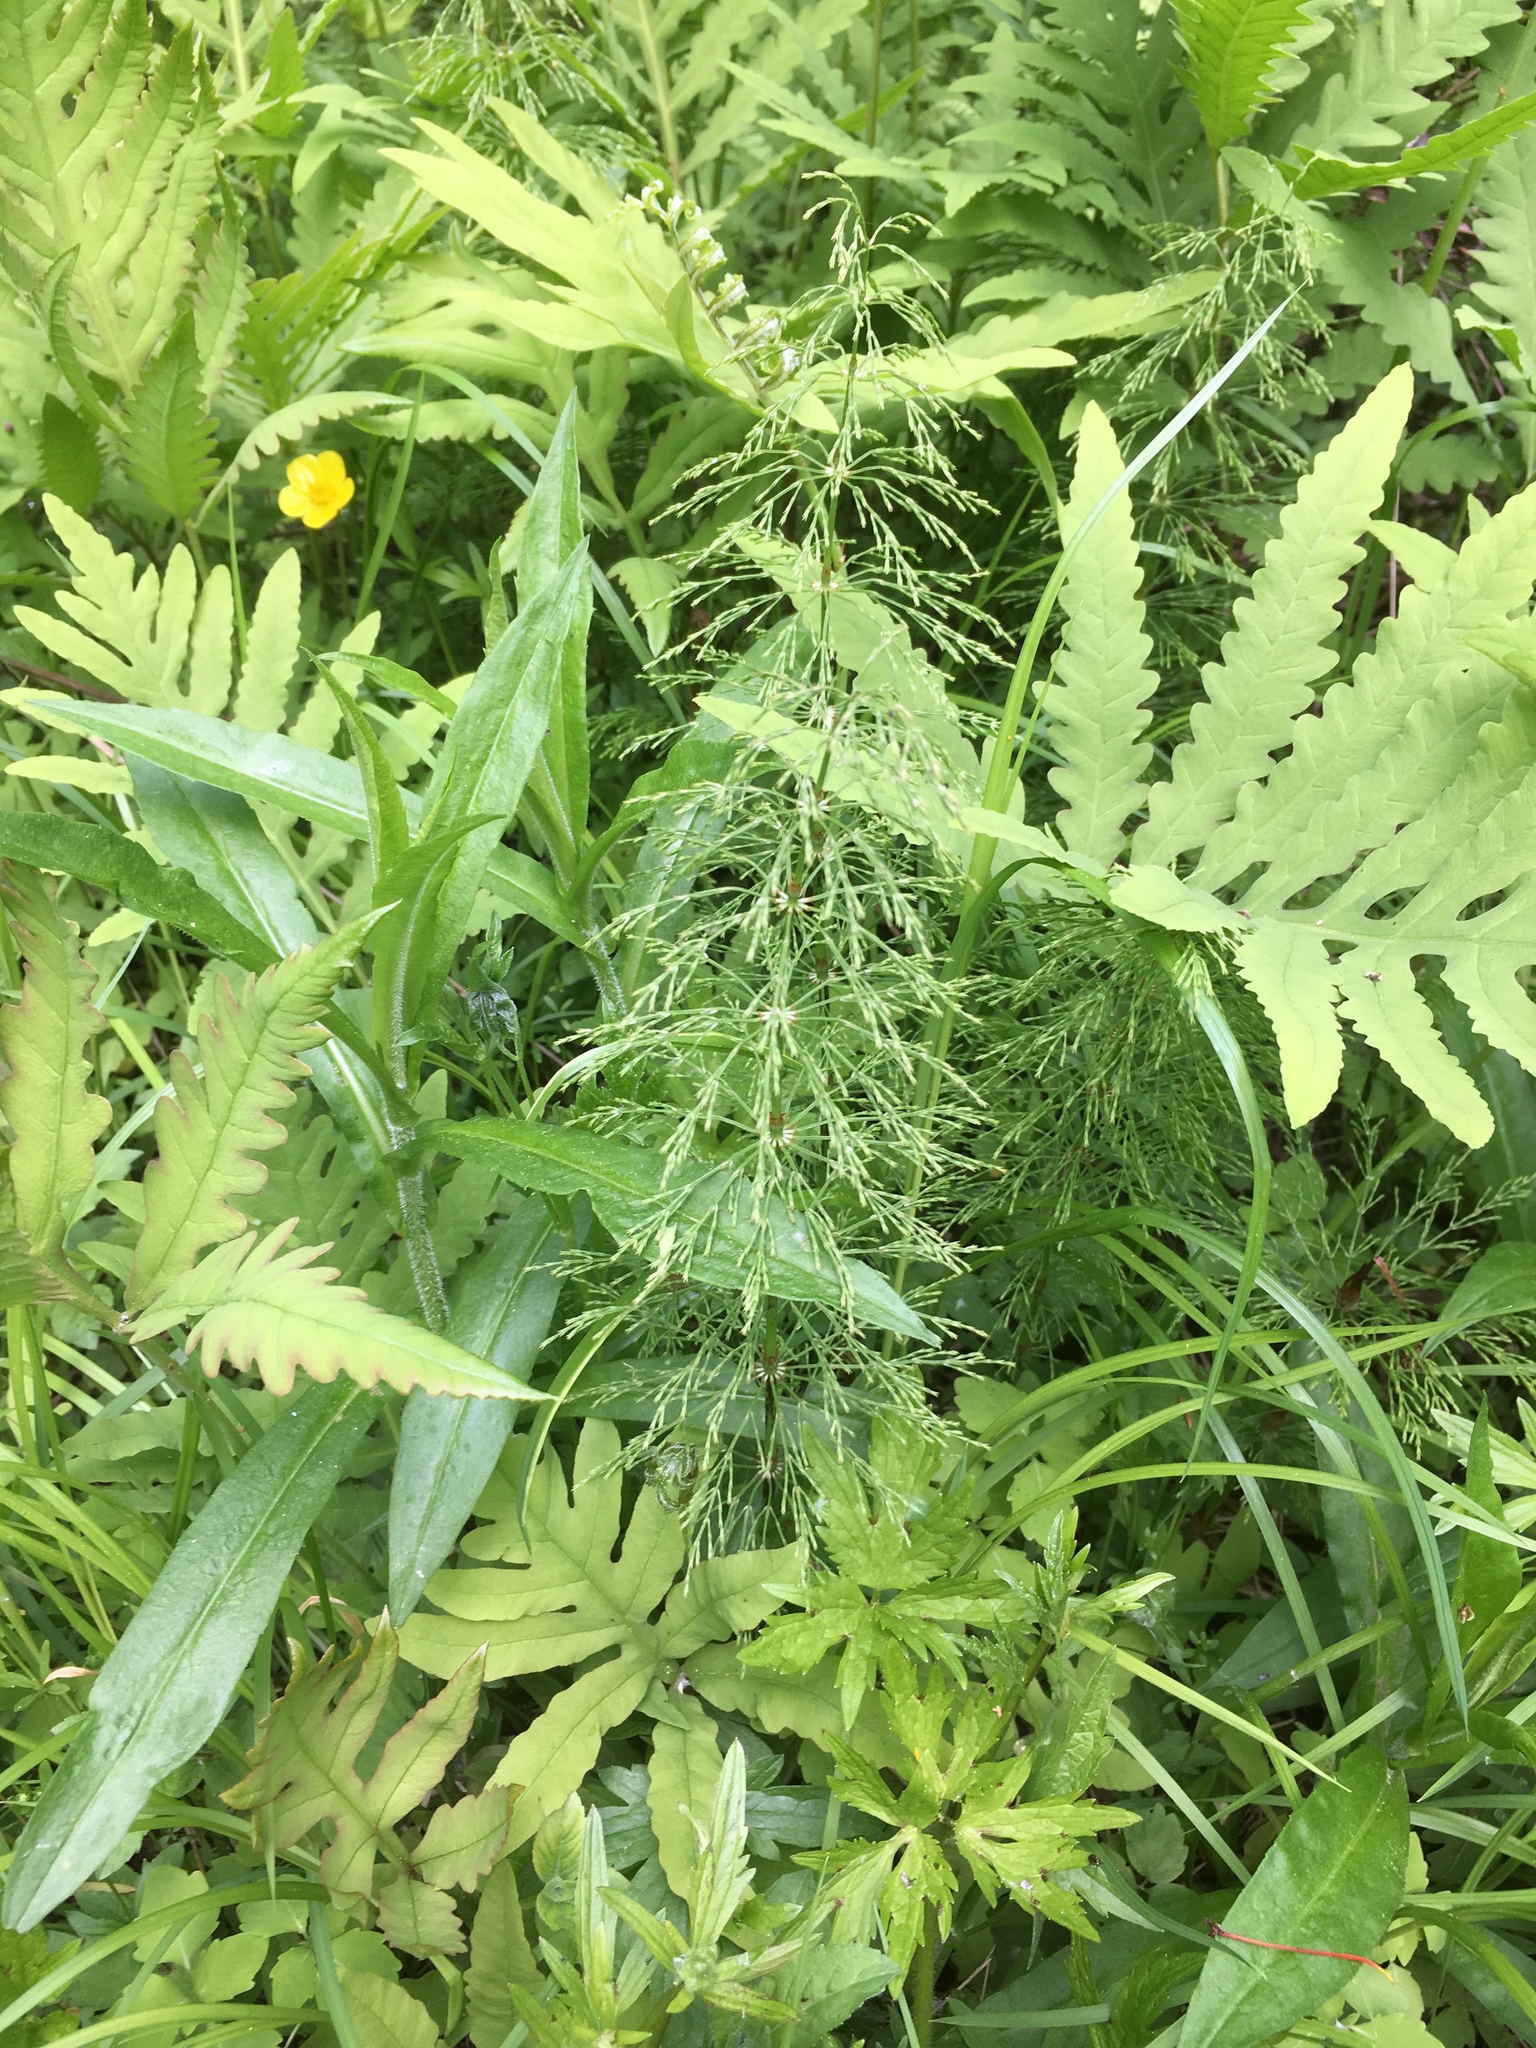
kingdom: Plantae
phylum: Tracheophyta
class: Polypodiopsida
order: Equisetales
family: Equisetaceae
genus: Equisetum
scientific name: Equisetum sylvaticum
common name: Wood horsetail
